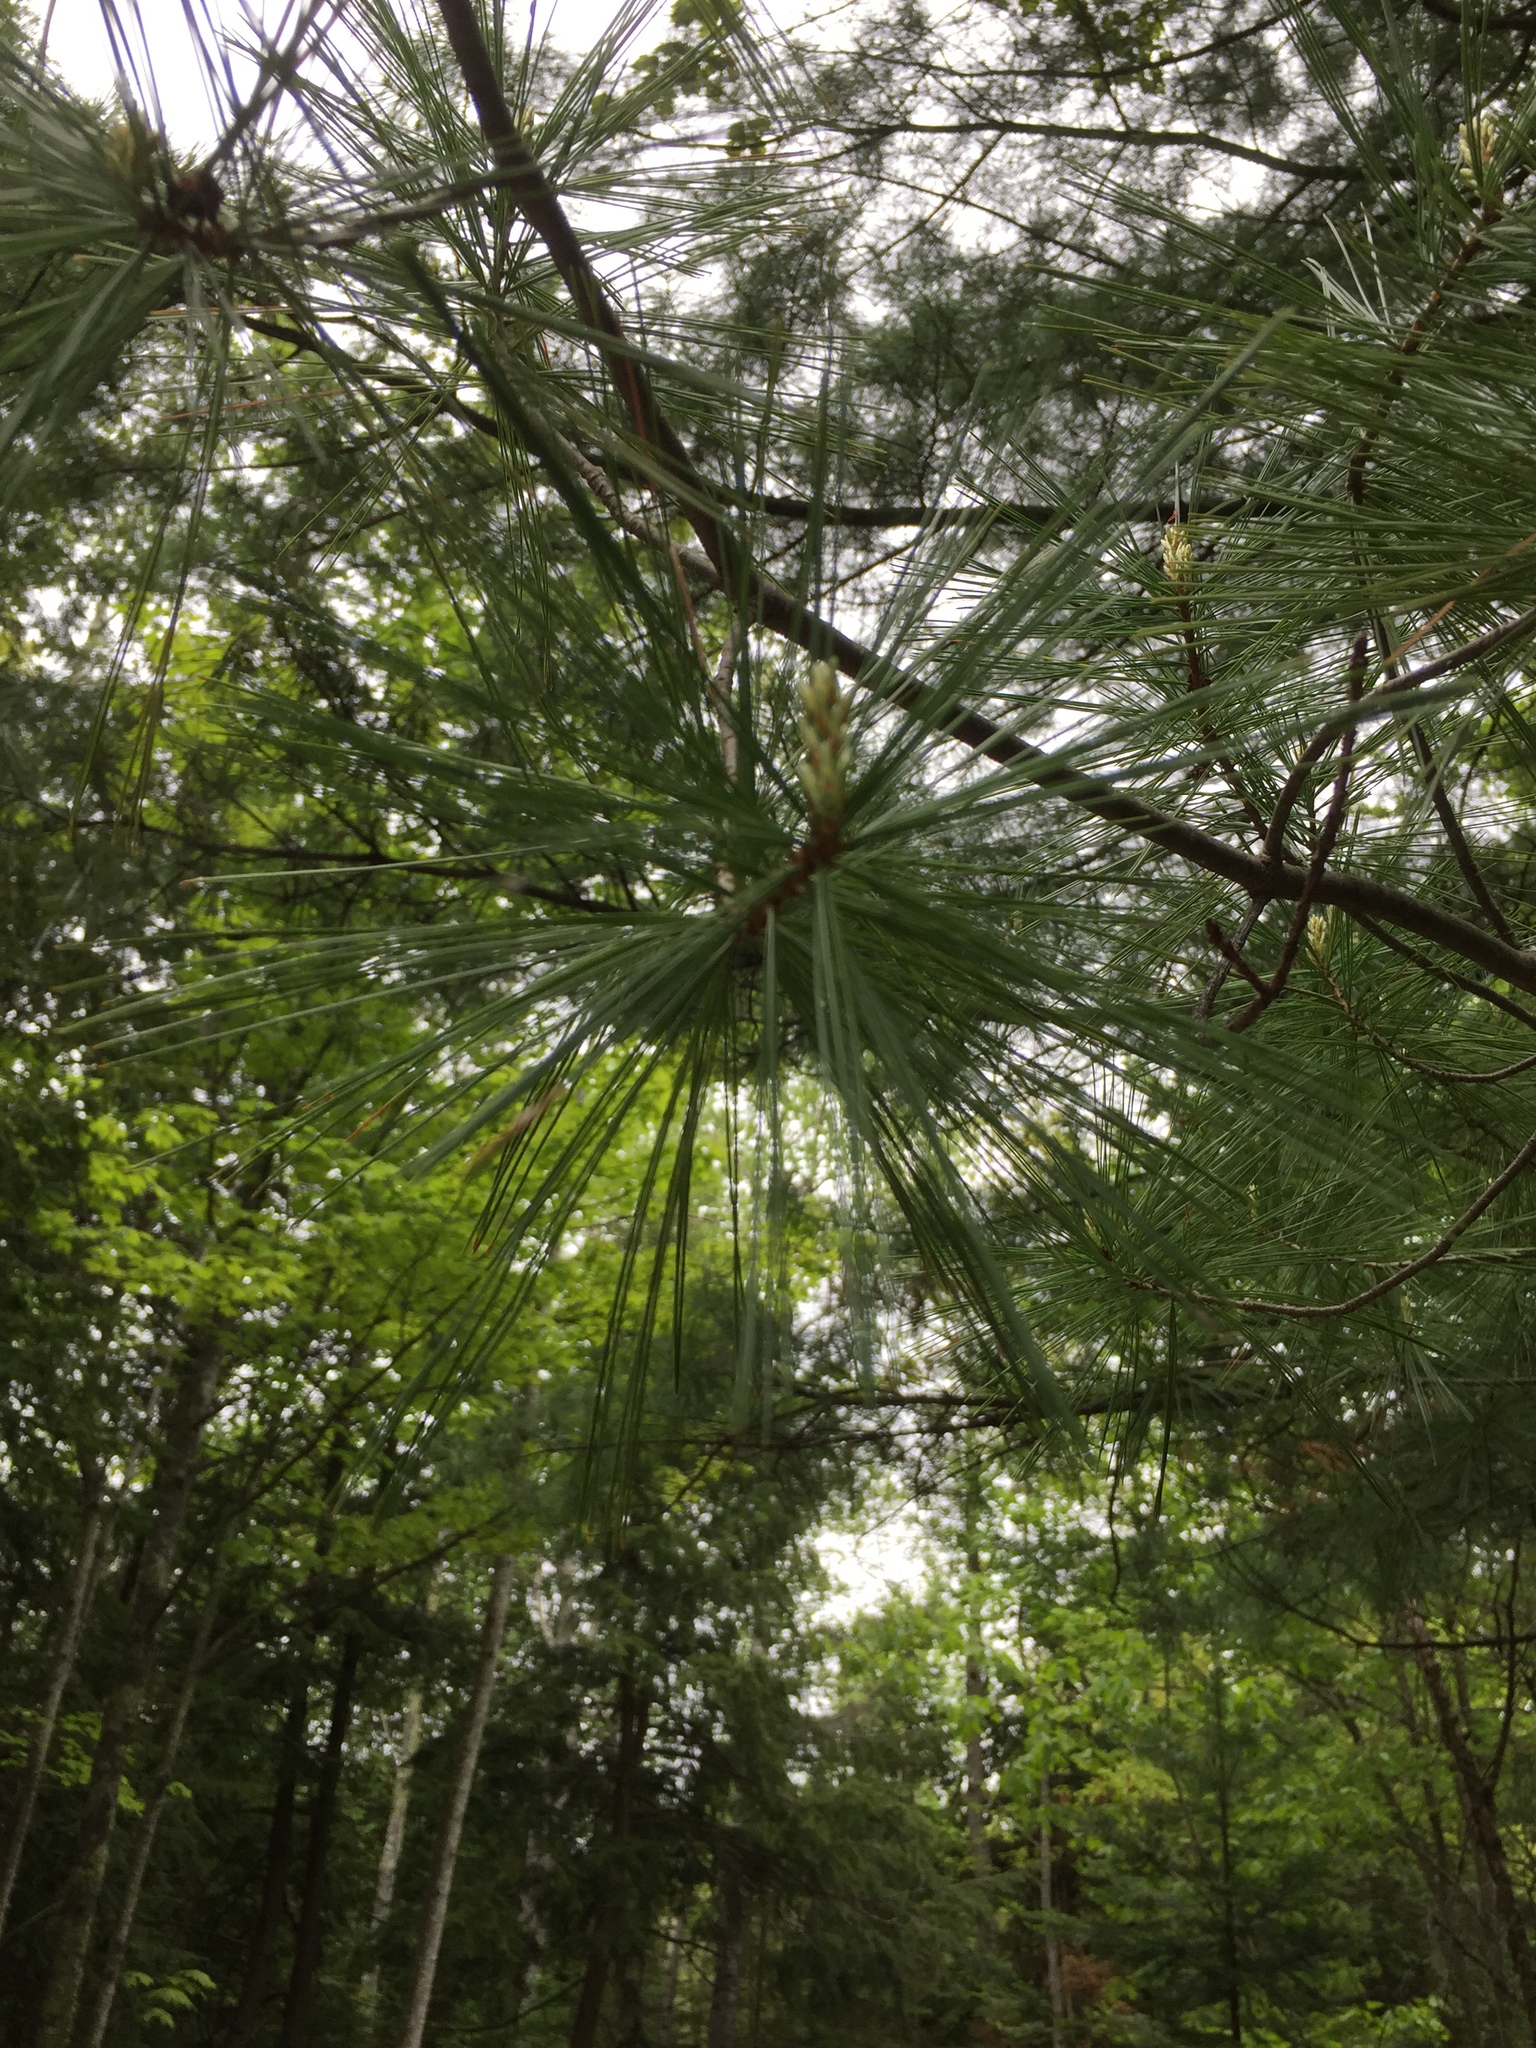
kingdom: Plantae
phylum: Tracheophyta
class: Pinopsida
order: Pinales
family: Pinaceae
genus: Pinus
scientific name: Pinus strobus
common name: Weymouth pine
